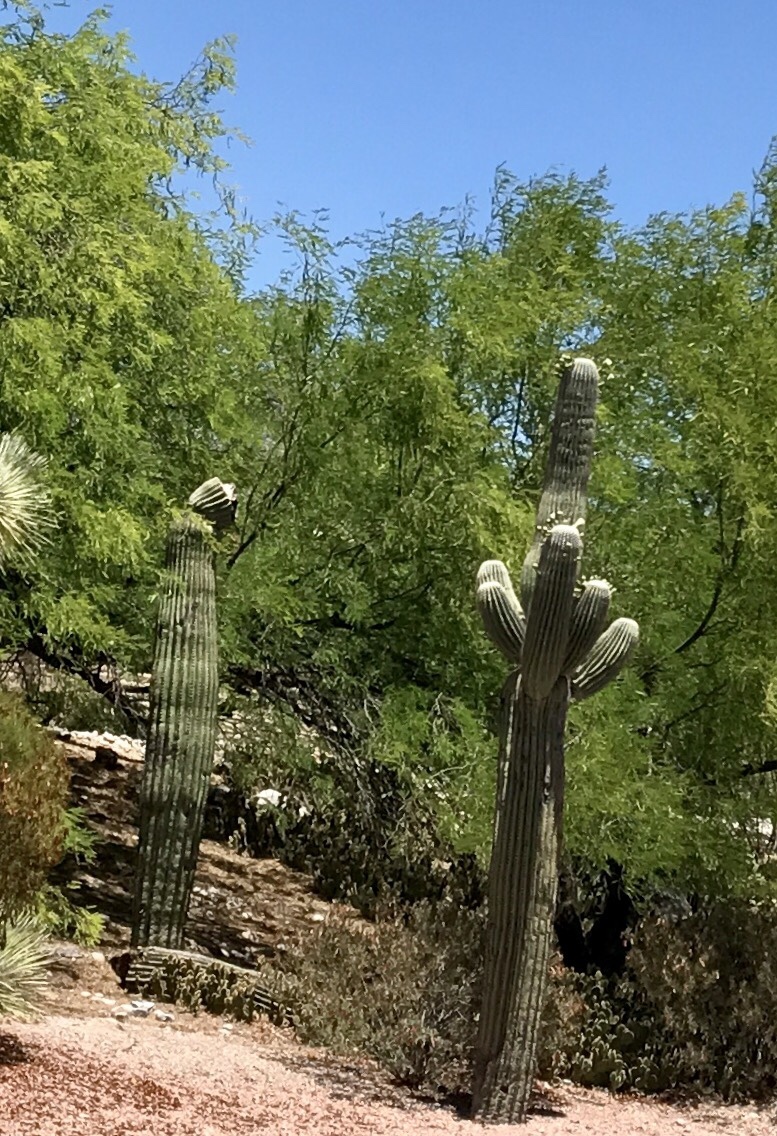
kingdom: Plantae
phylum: Tracheophyta
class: Magnoliopsida
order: Caryophyllales
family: Cactaceae
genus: Carnegiea
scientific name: Carnegiea gigantea
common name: Saguaro
